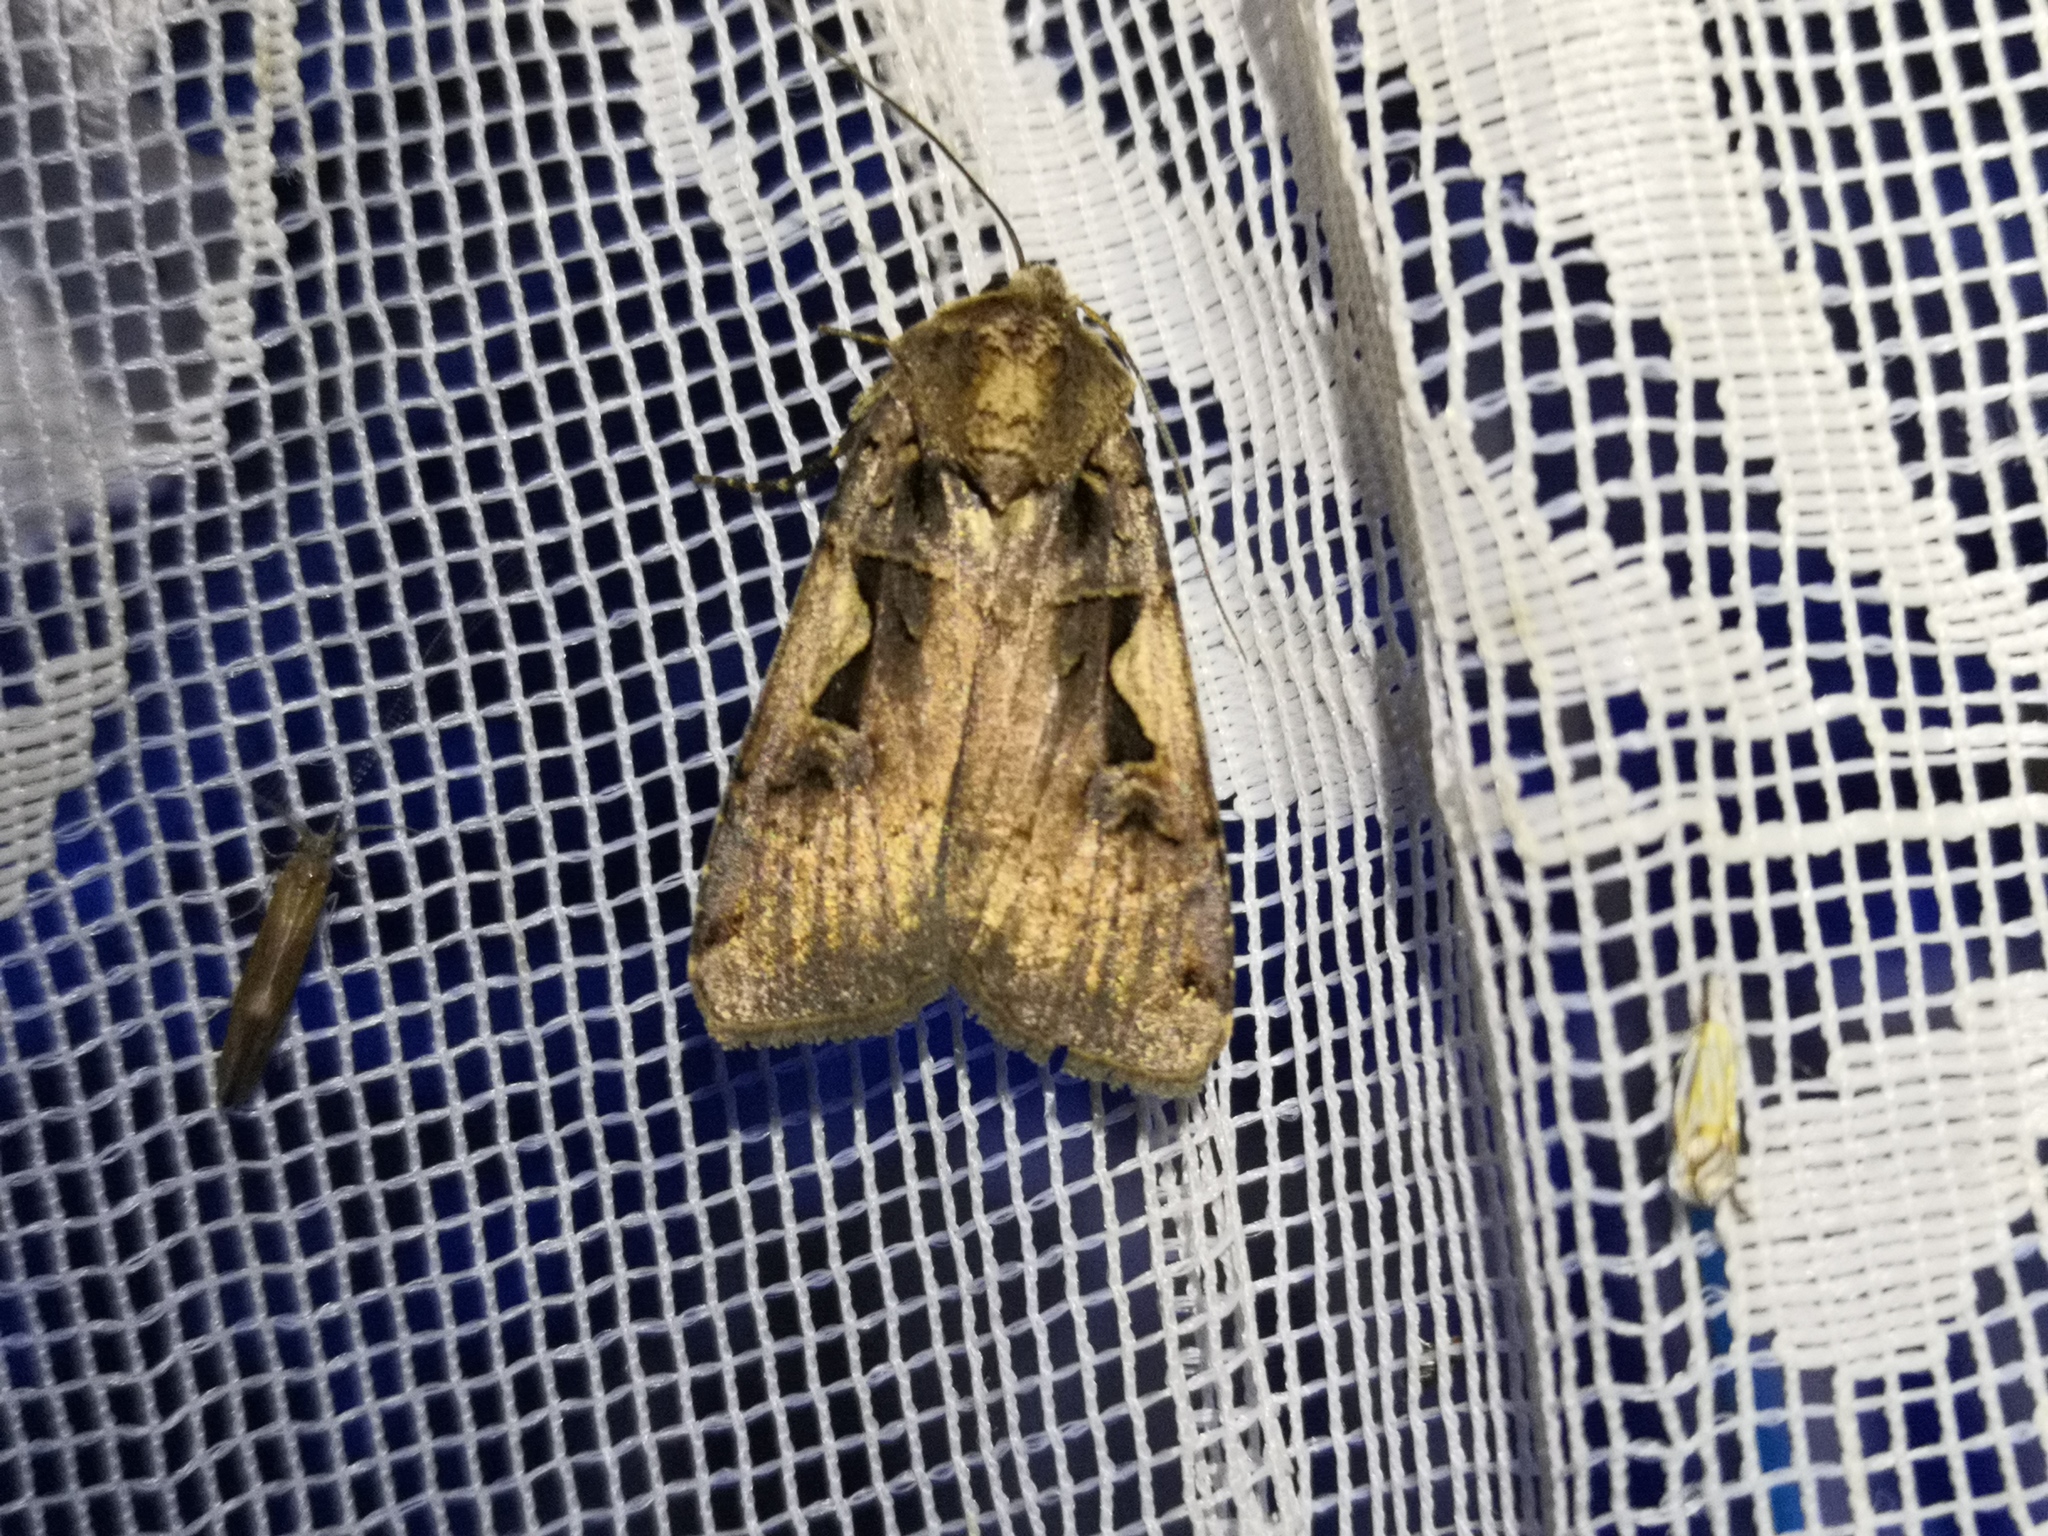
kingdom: Animalia
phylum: Arthropoda
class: Insecta
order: Lepidoptera
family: Noctuidae
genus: Xestia
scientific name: Xestia c-nigrum
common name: Setaceous hebrew character
